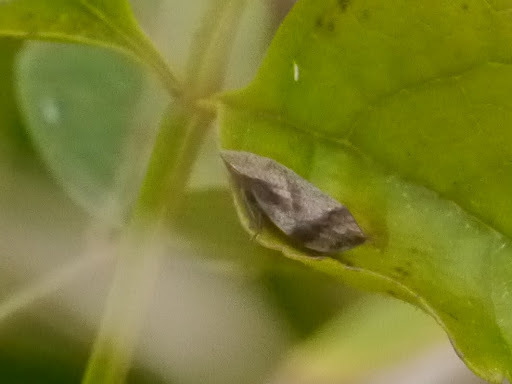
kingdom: Animalia
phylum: Arthropoda
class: Insecta
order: Hemiptera
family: Aphrophoridae
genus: Lepyronia
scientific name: Lepyronia quadrangularis
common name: Diamond-backed spittlebug
